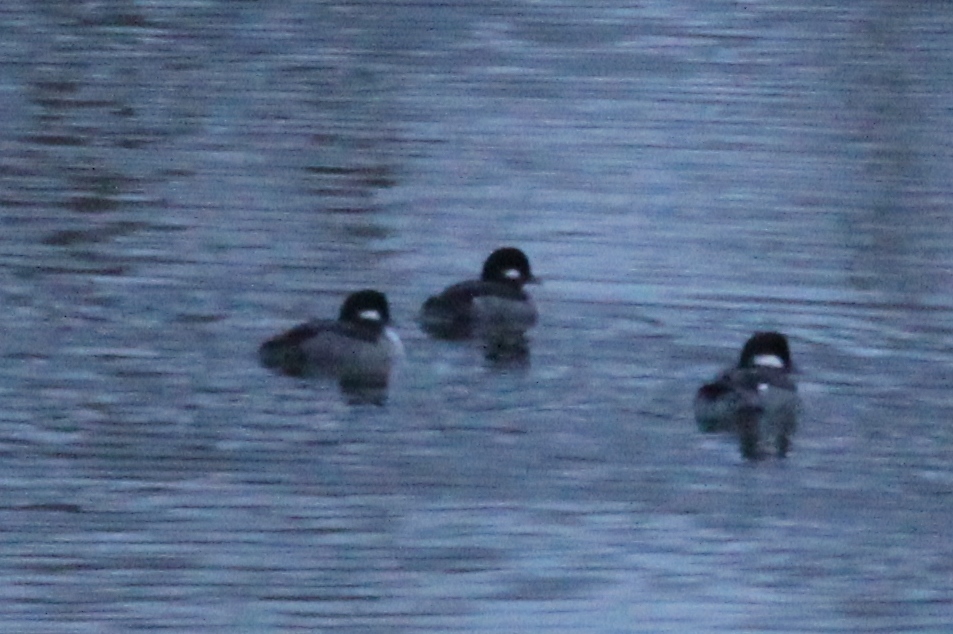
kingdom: Animalia
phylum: Chordata
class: Aves
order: Anseriformes
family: Anatidae
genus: Bucephala
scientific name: Bucephala albeola
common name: Bufflehead
